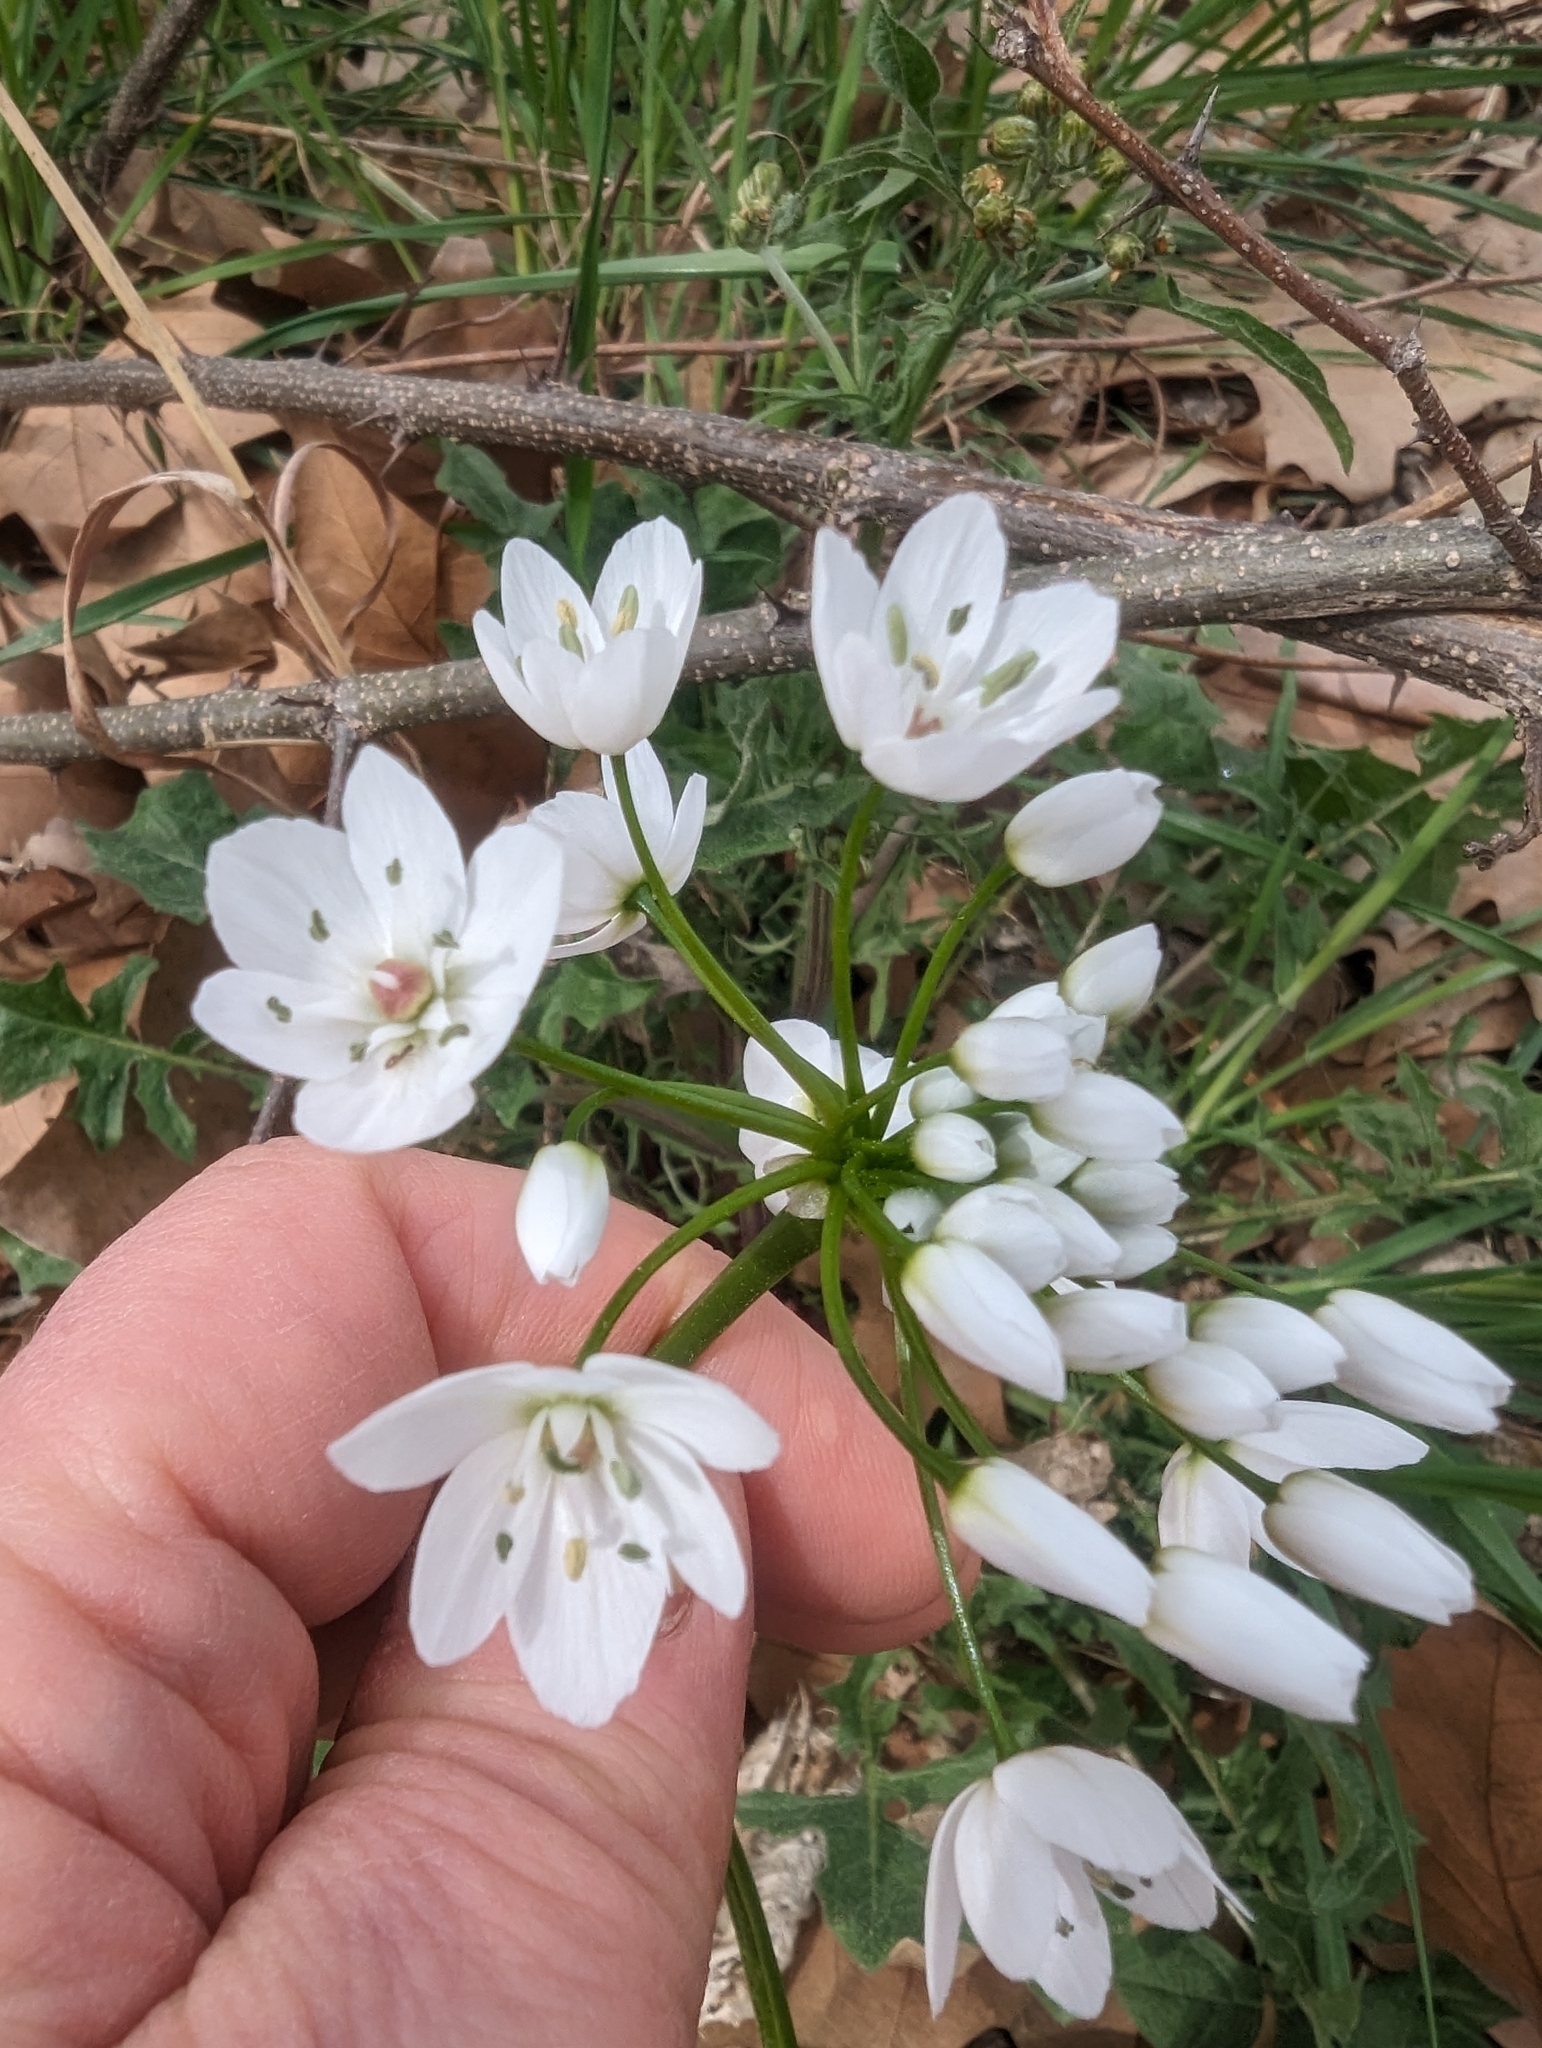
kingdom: Plantae
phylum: Tracheophyta
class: Liliopsida
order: Asparagales
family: Amaryllidaceae
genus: Allium
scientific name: Allium neapolitanum
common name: Neapolitan garlic
